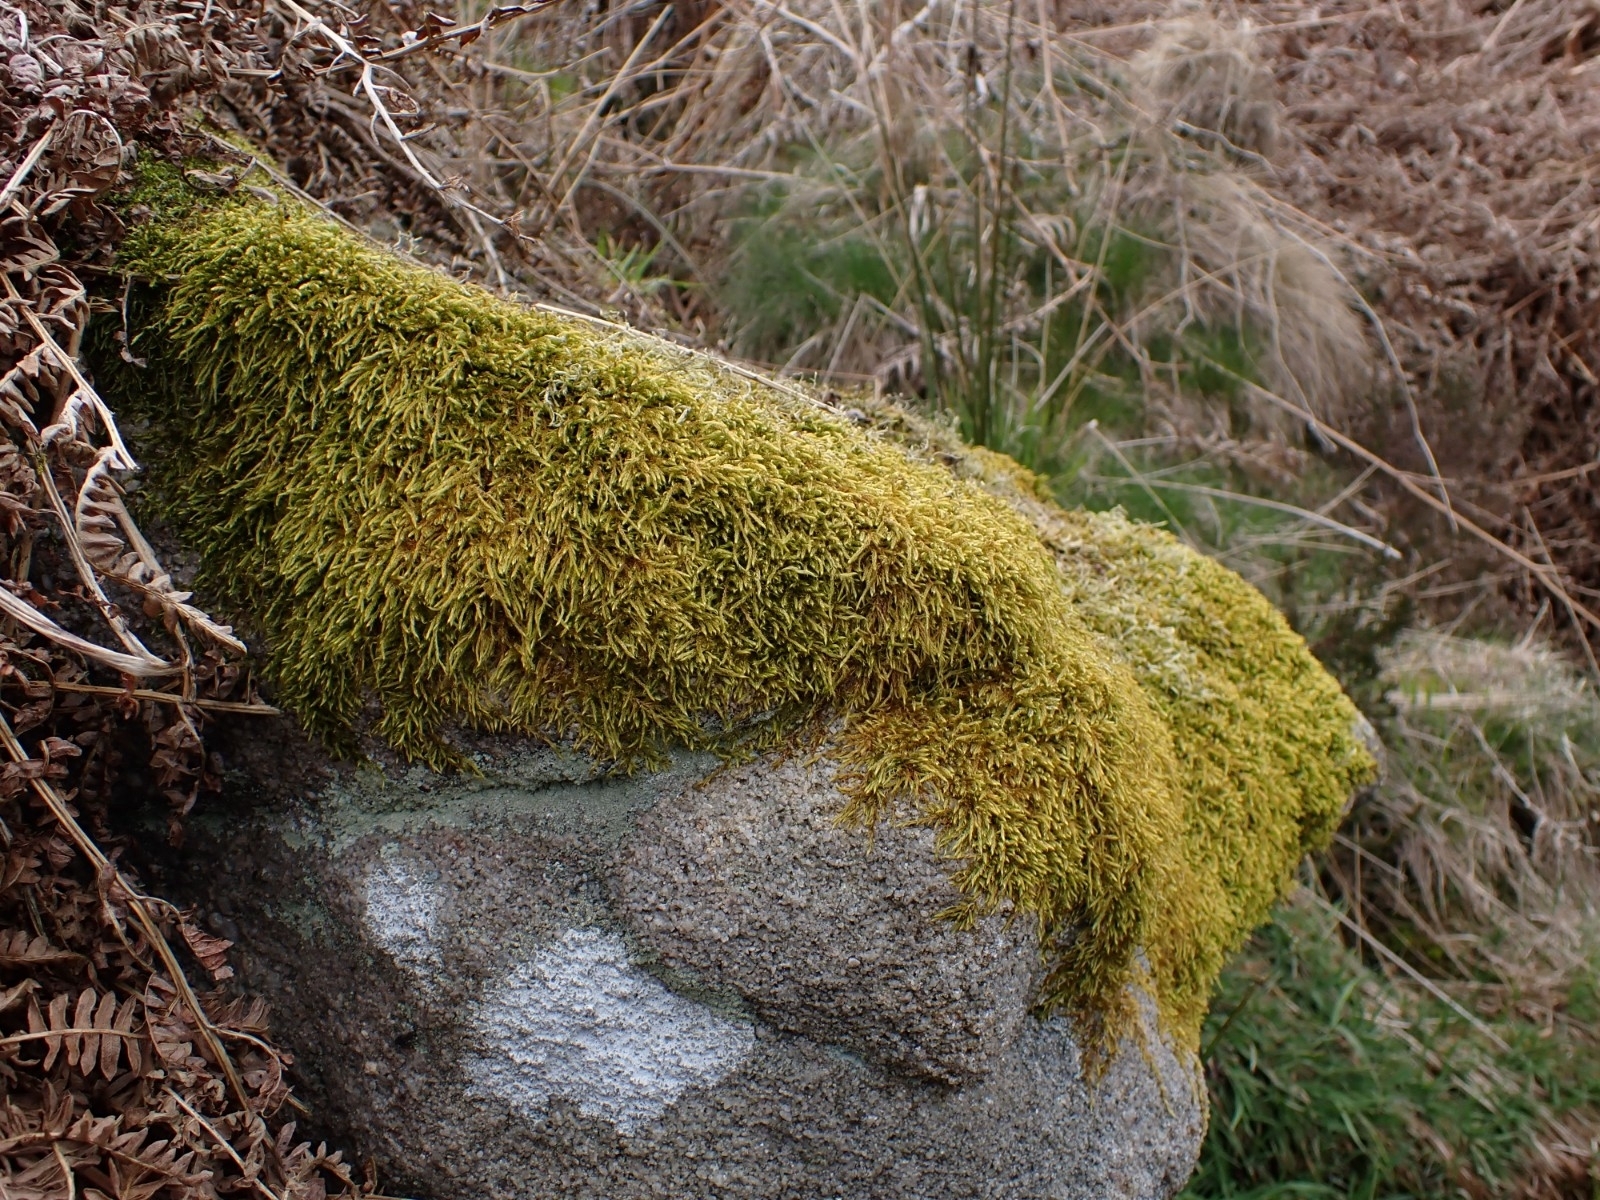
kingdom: Plantae
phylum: Bryophyta
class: Bryopsida
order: Hypnales
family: Hypnaceae
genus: Hypnum
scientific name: Hypnum cupressiforme
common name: Cypress-leaved plait-moss
